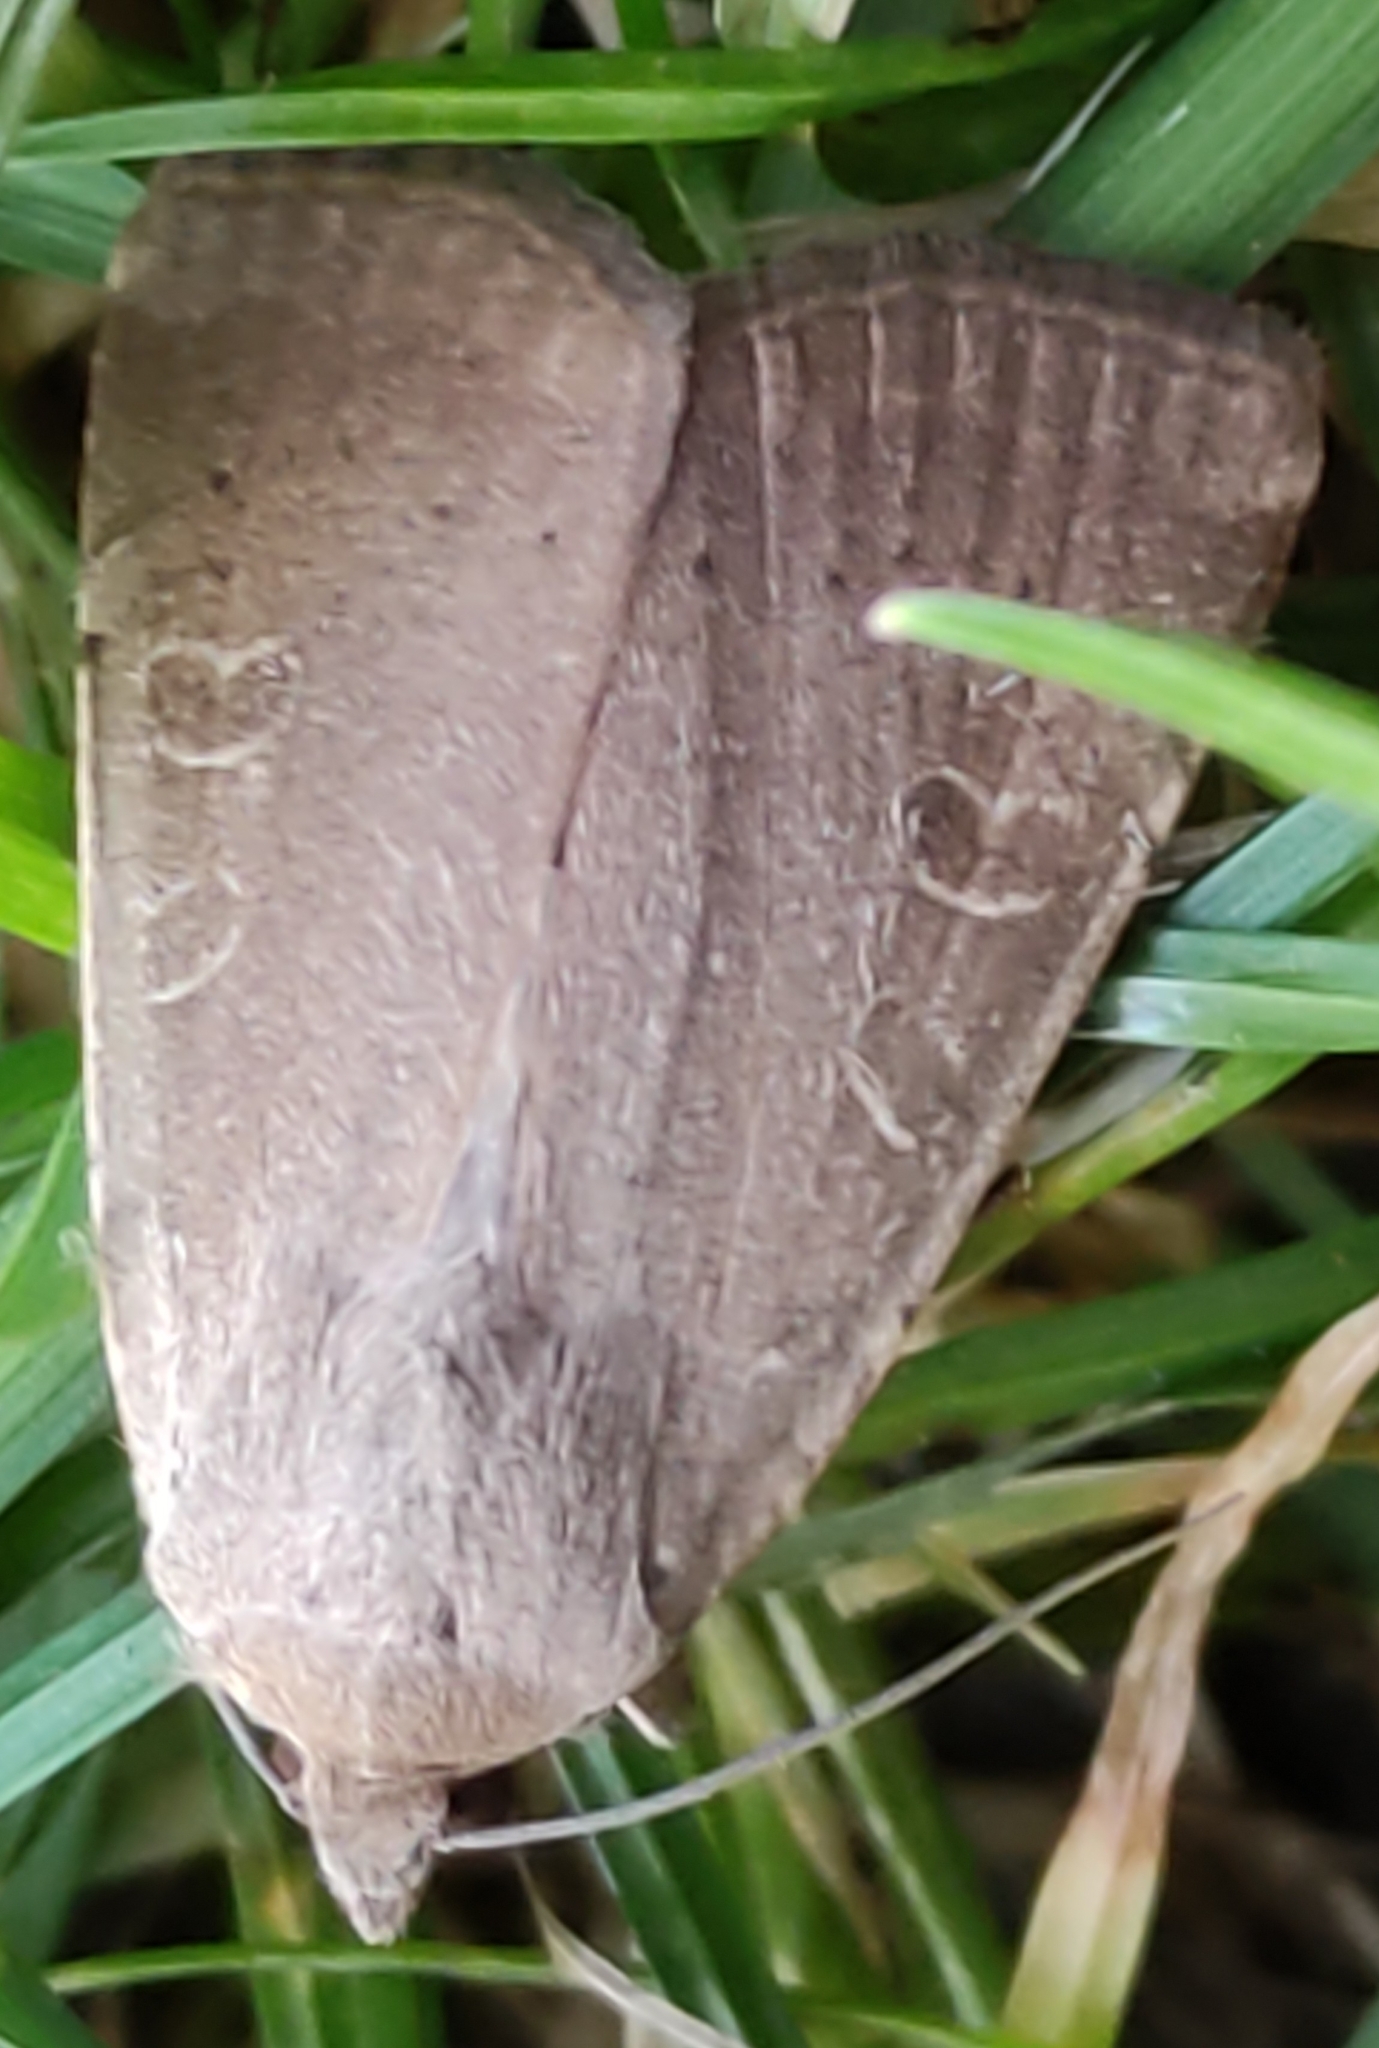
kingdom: Animalia
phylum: Arthropoda
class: Insecta
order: Lepidoptera
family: Noctuidae
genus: Noctua
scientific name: Noctua comes
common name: Lesser yellow underwing
